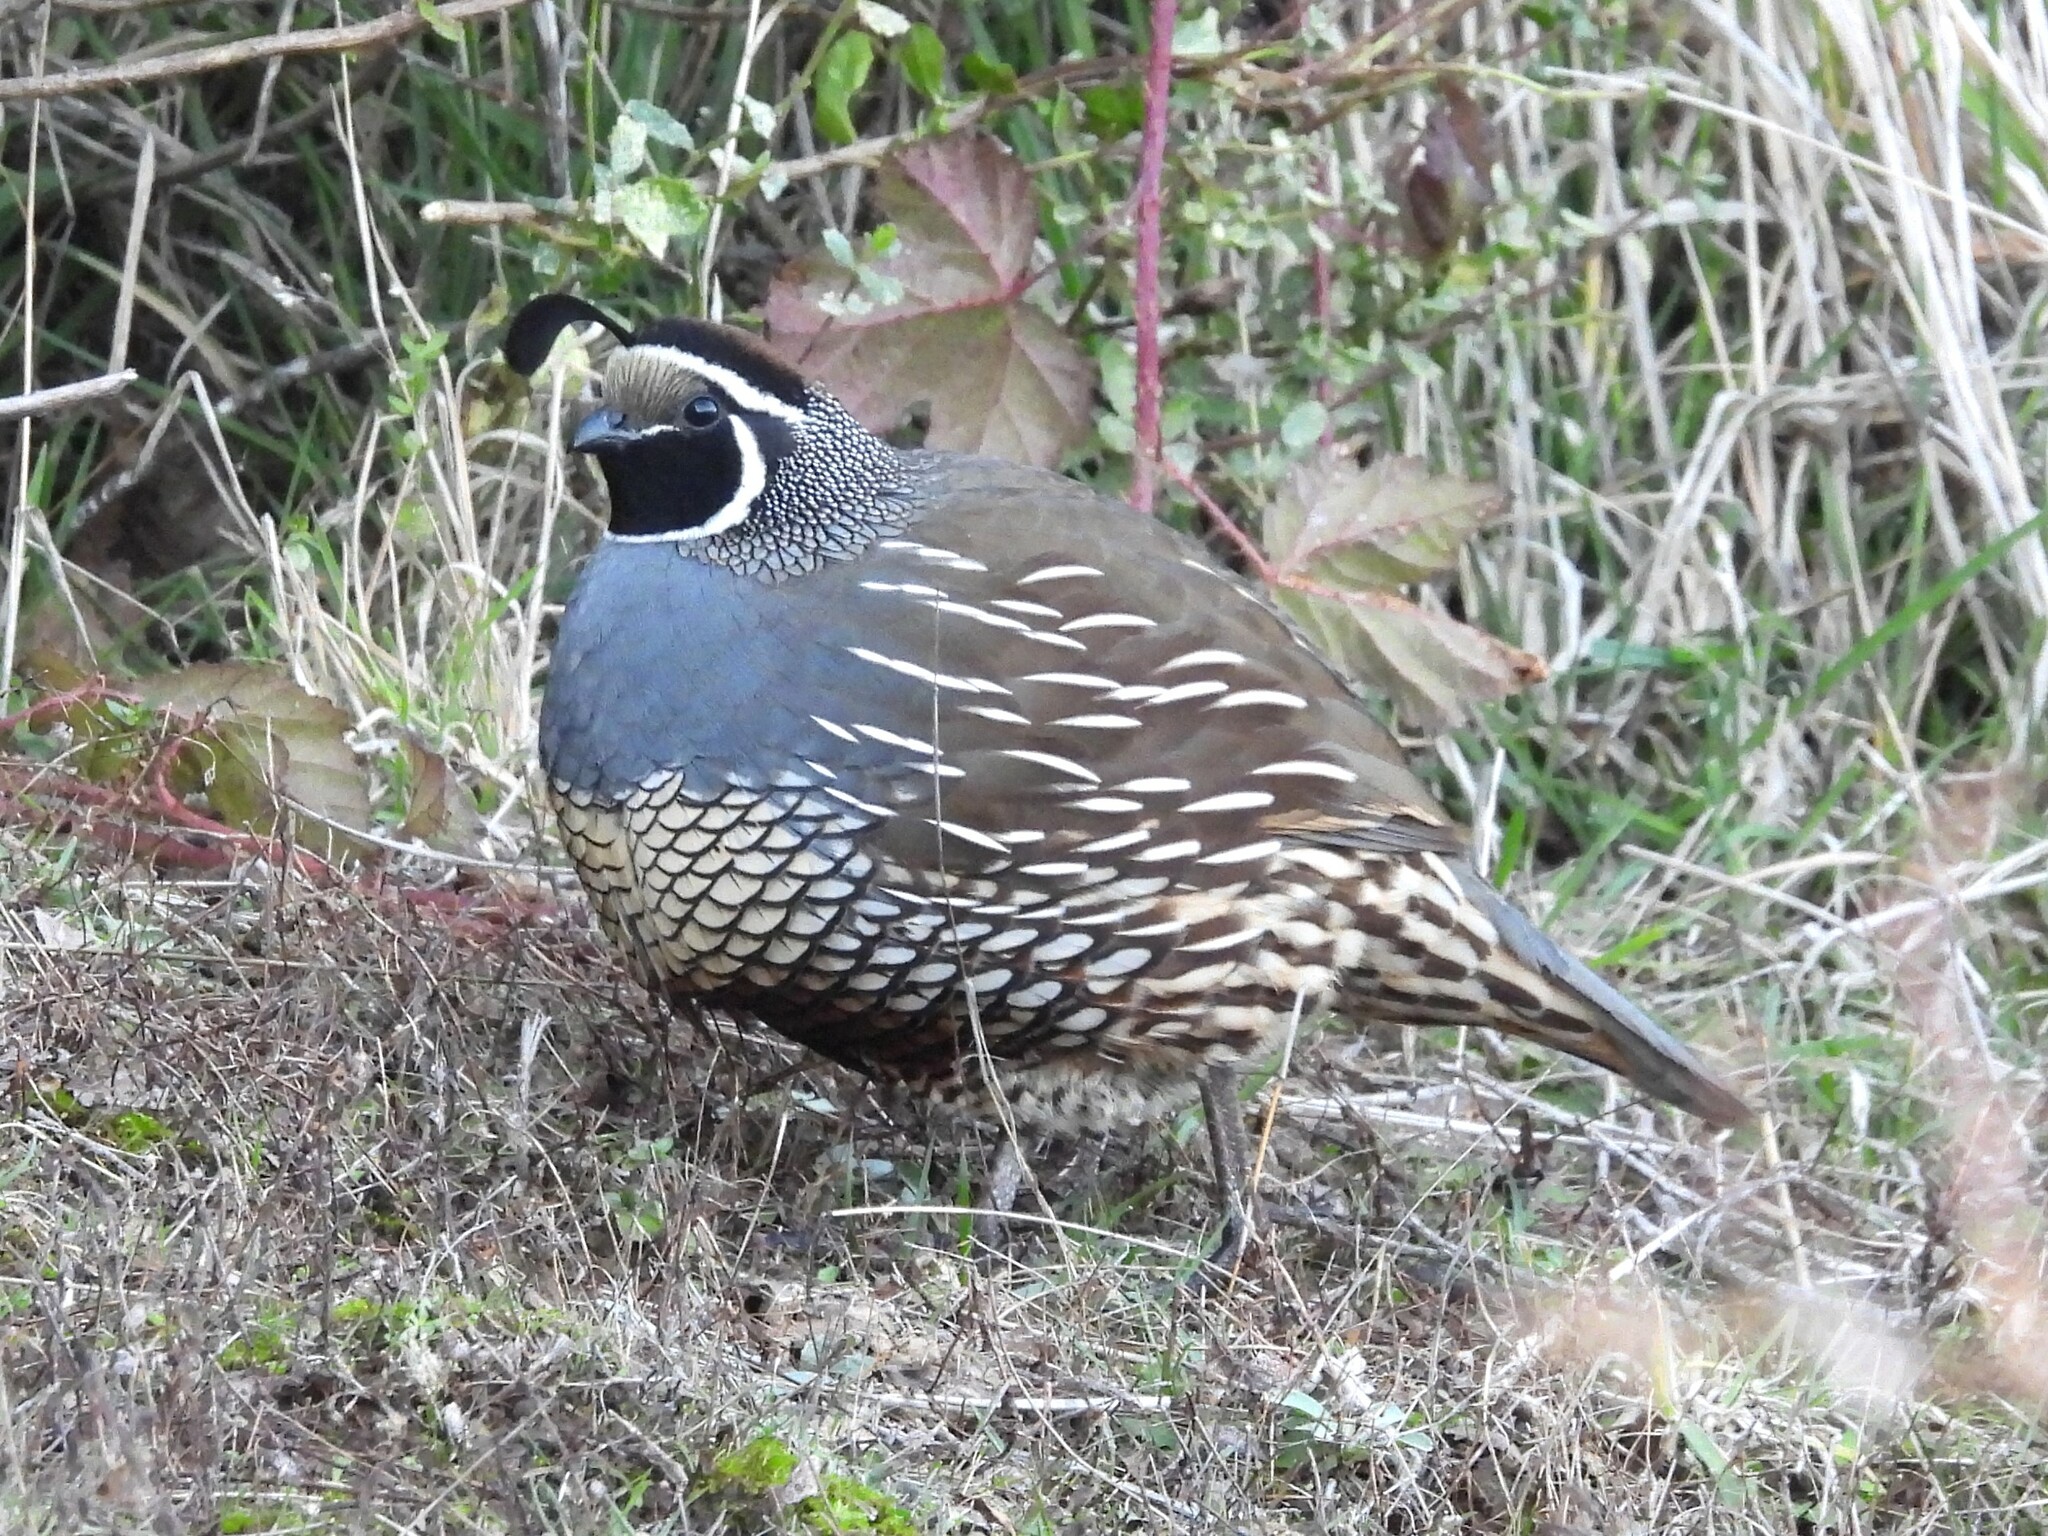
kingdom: Animalia
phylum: Chordata
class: Aves
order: Galliformes
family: Odontophoridae
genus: Callipepla
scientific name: Callipepla californica
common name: California quail
